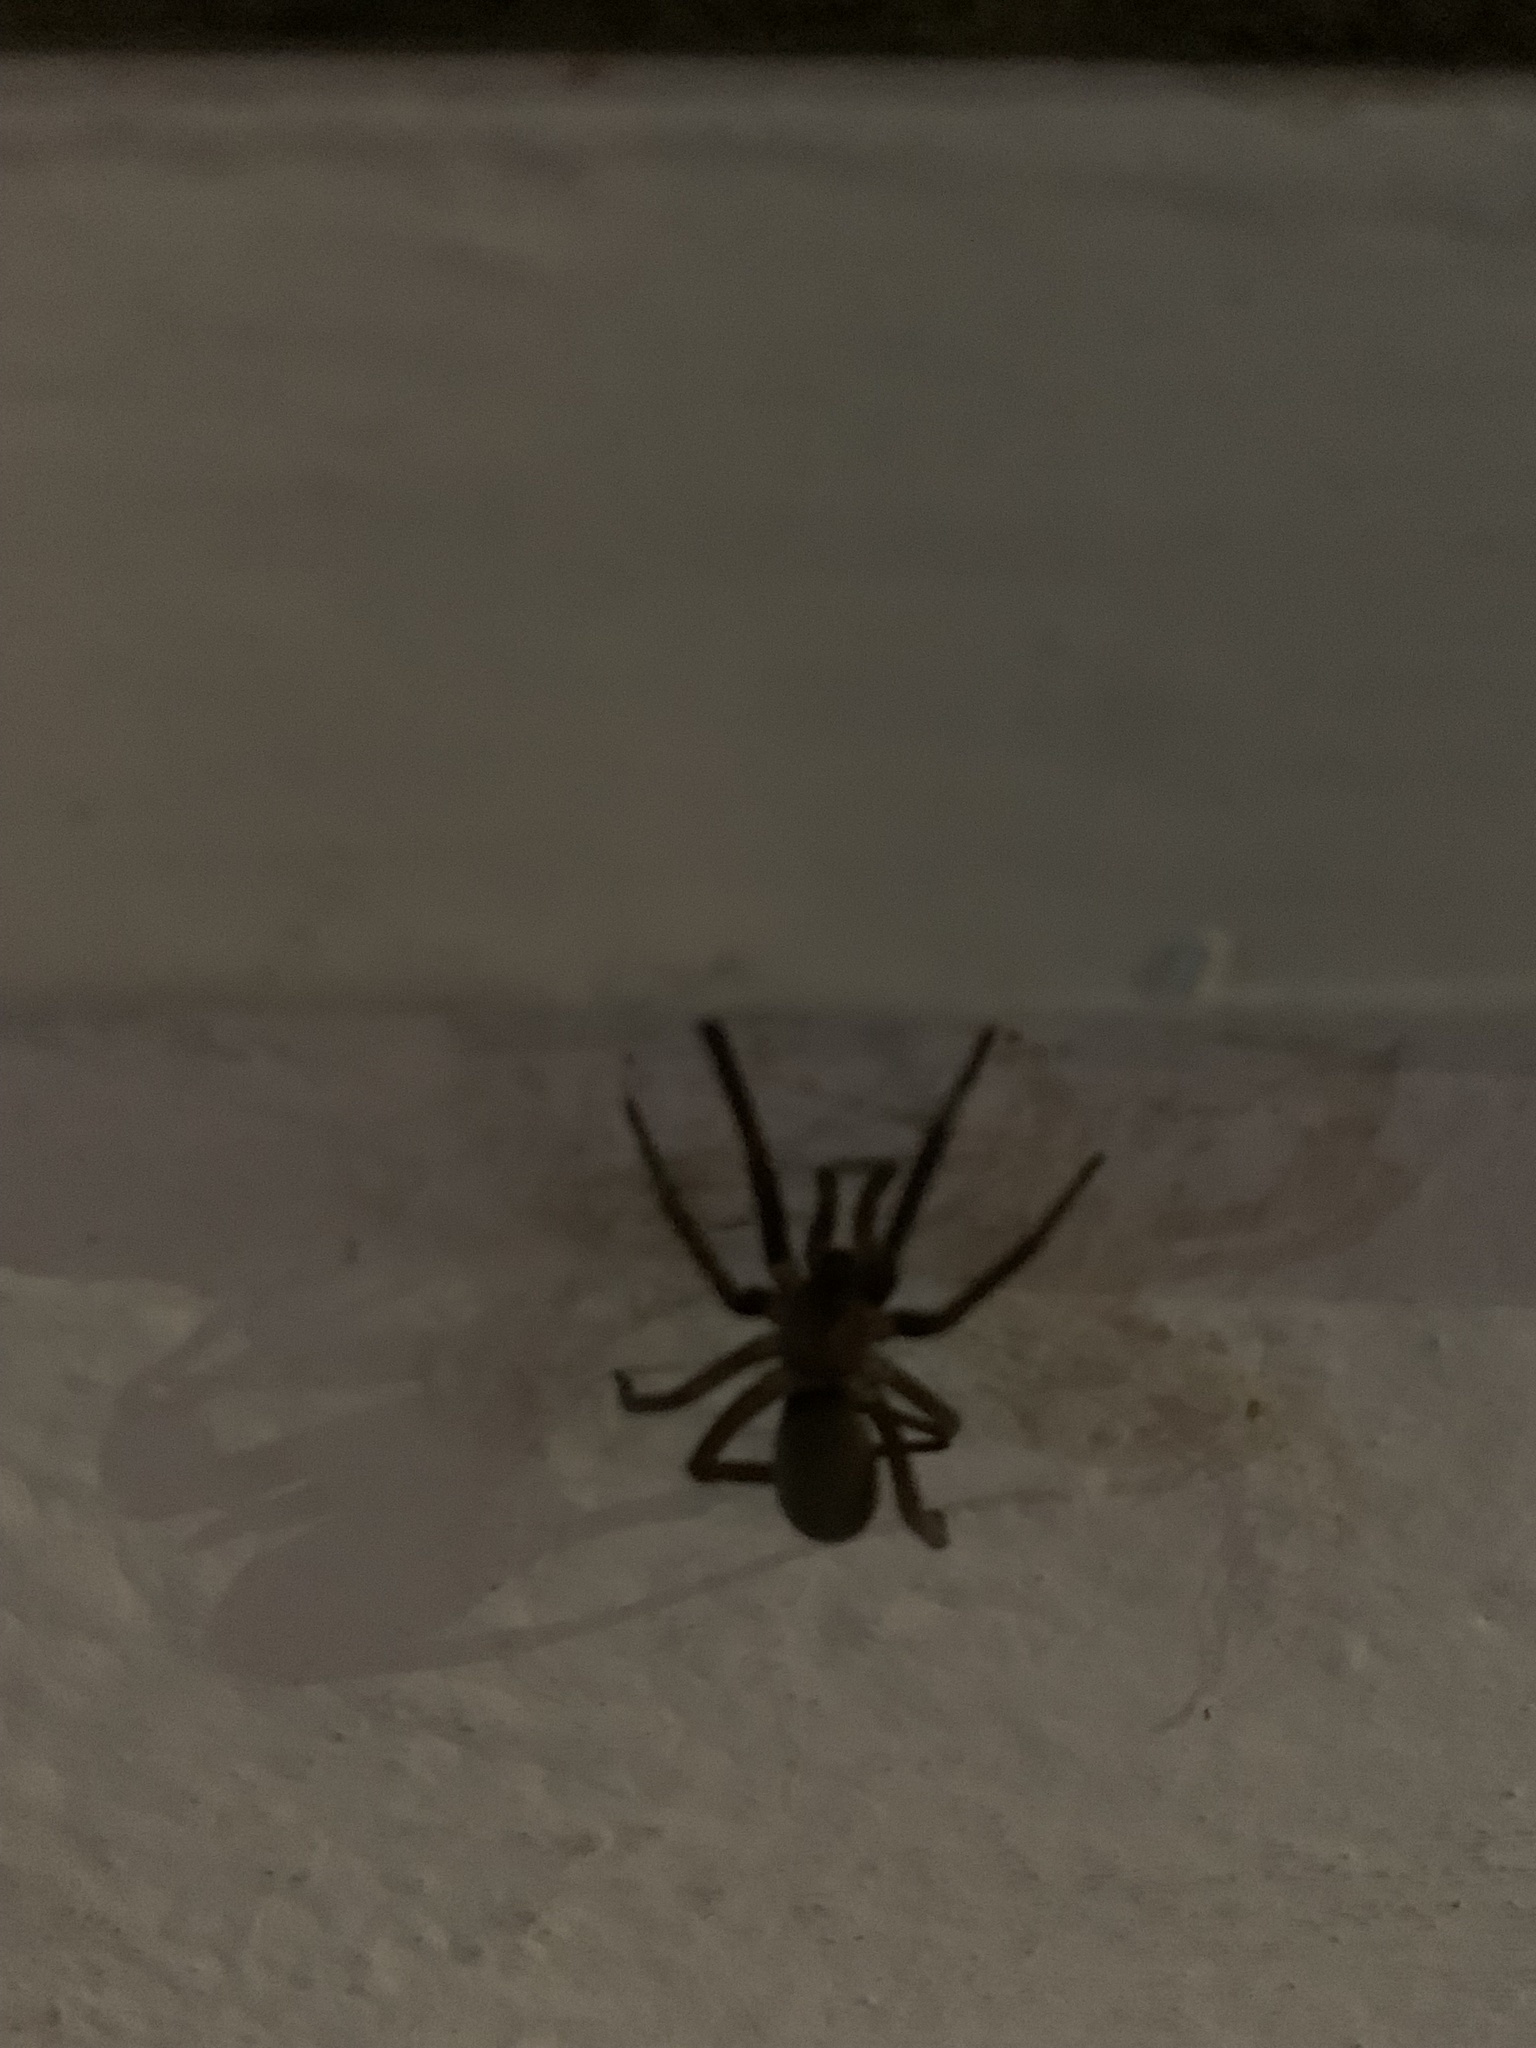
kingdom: Animalia
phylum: Arthropoda
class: Arachnida
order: Araneae
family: Filistatidae
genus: Kukulcania
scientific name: Kukulcania hibernalis
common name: Crevice weaver
